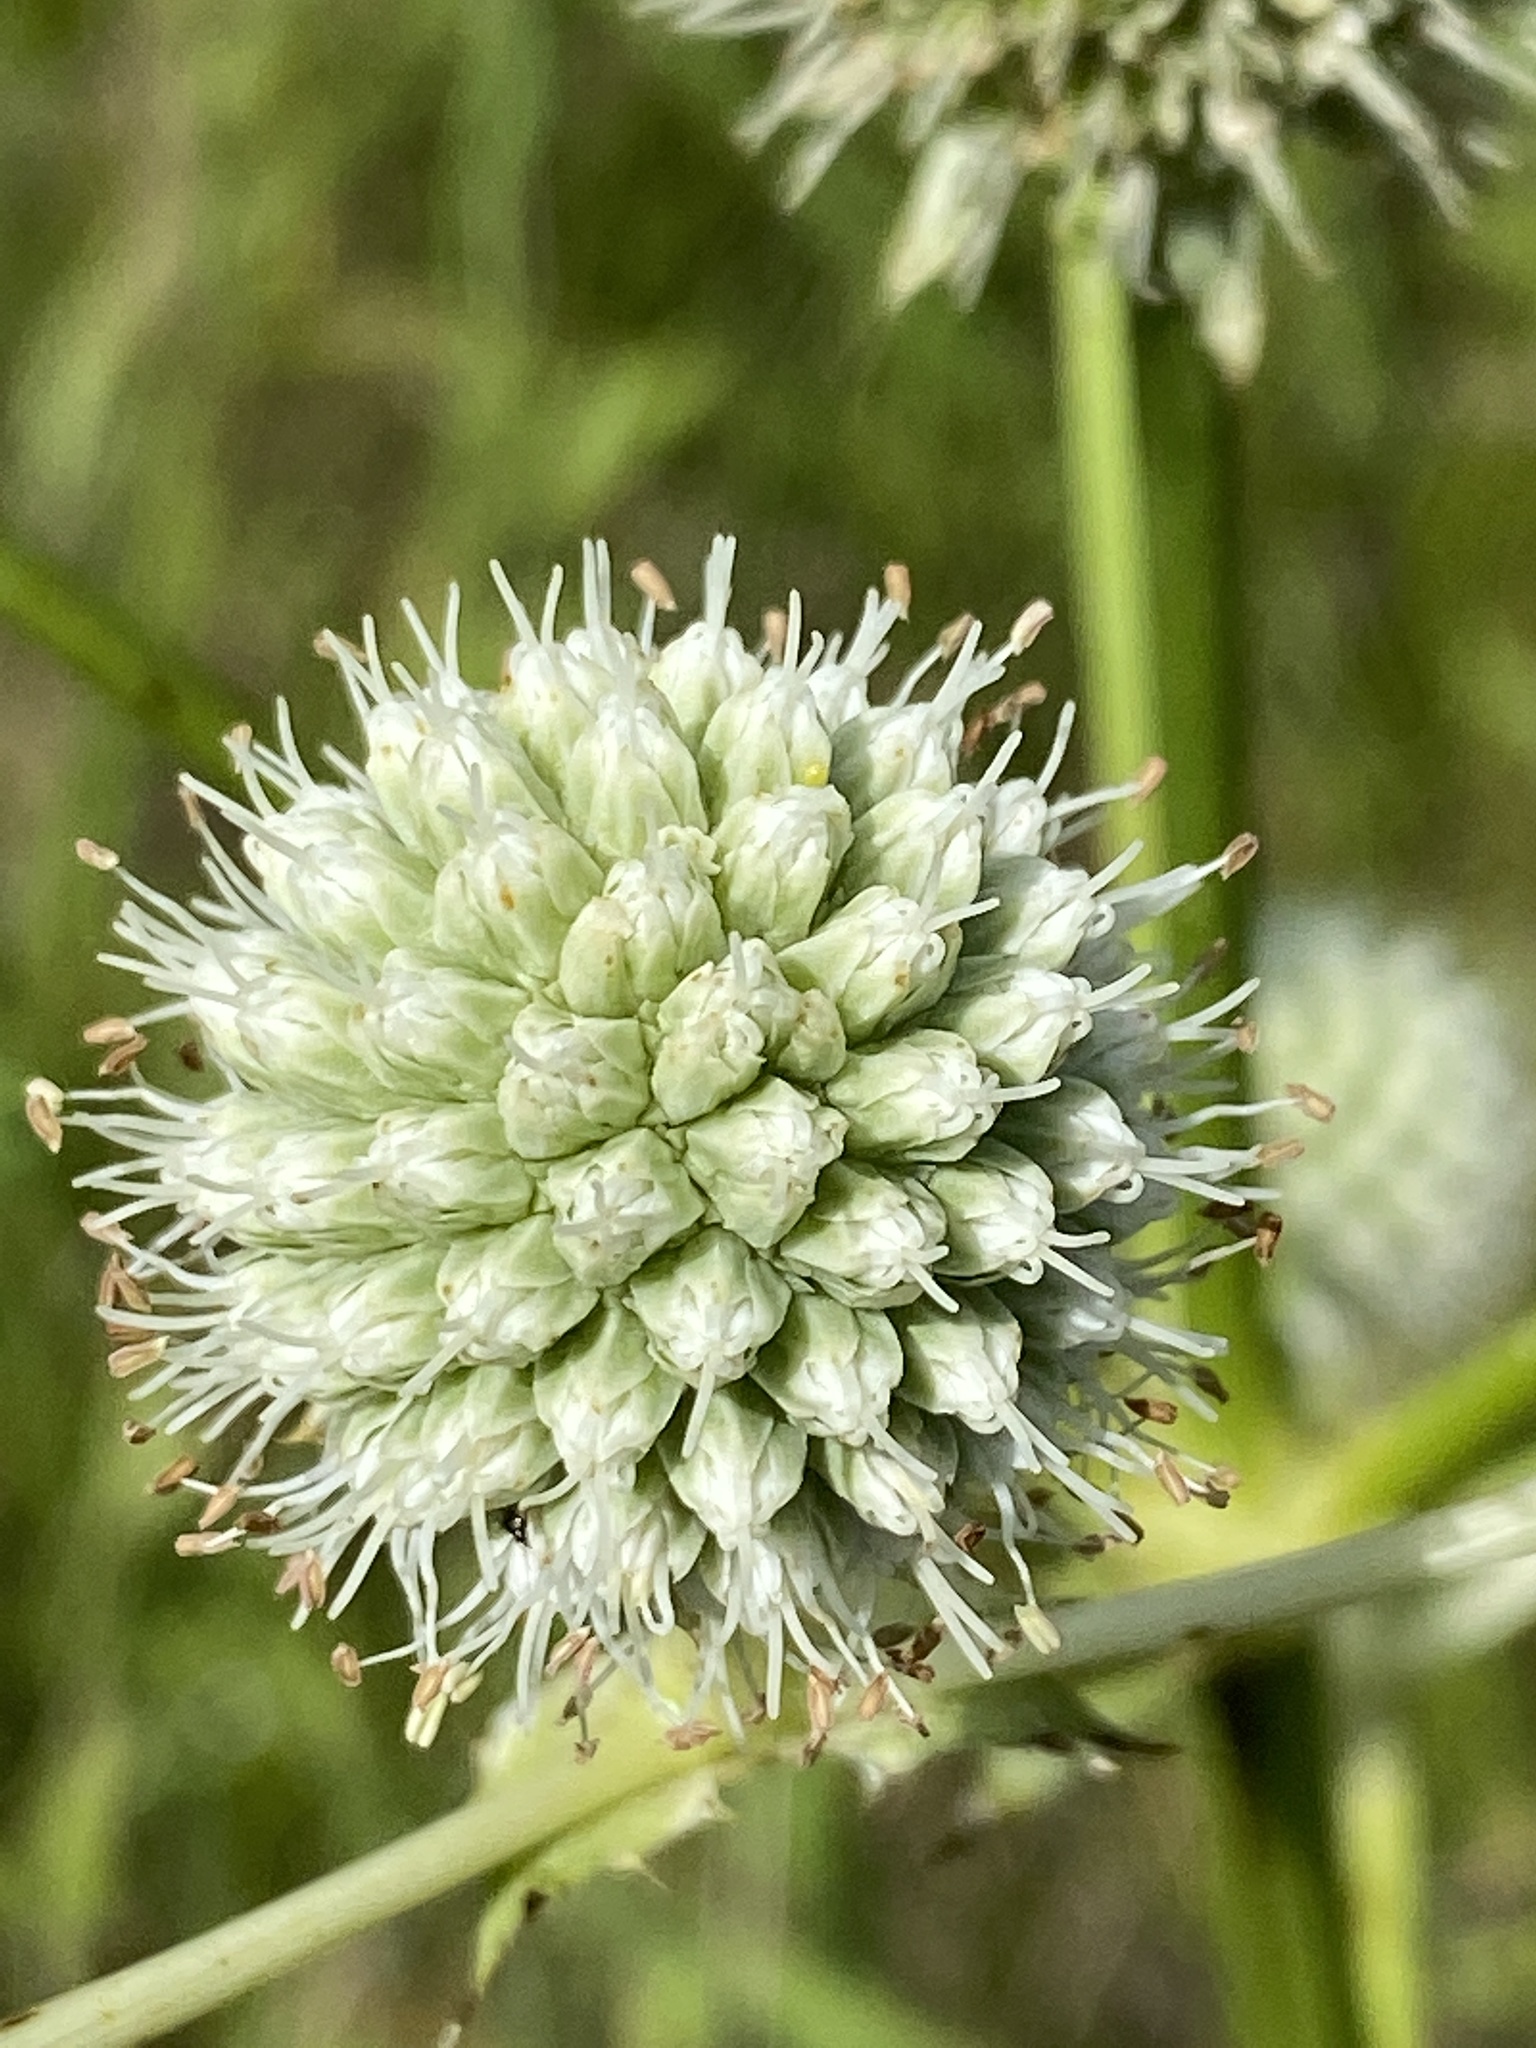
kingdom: Plantae
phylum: Tracheophyta
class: Magnoliopsida
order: Apiales
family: Apiaceae
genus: Eryngium
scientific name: Eryngium yuccifolium
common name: Button eryngo
